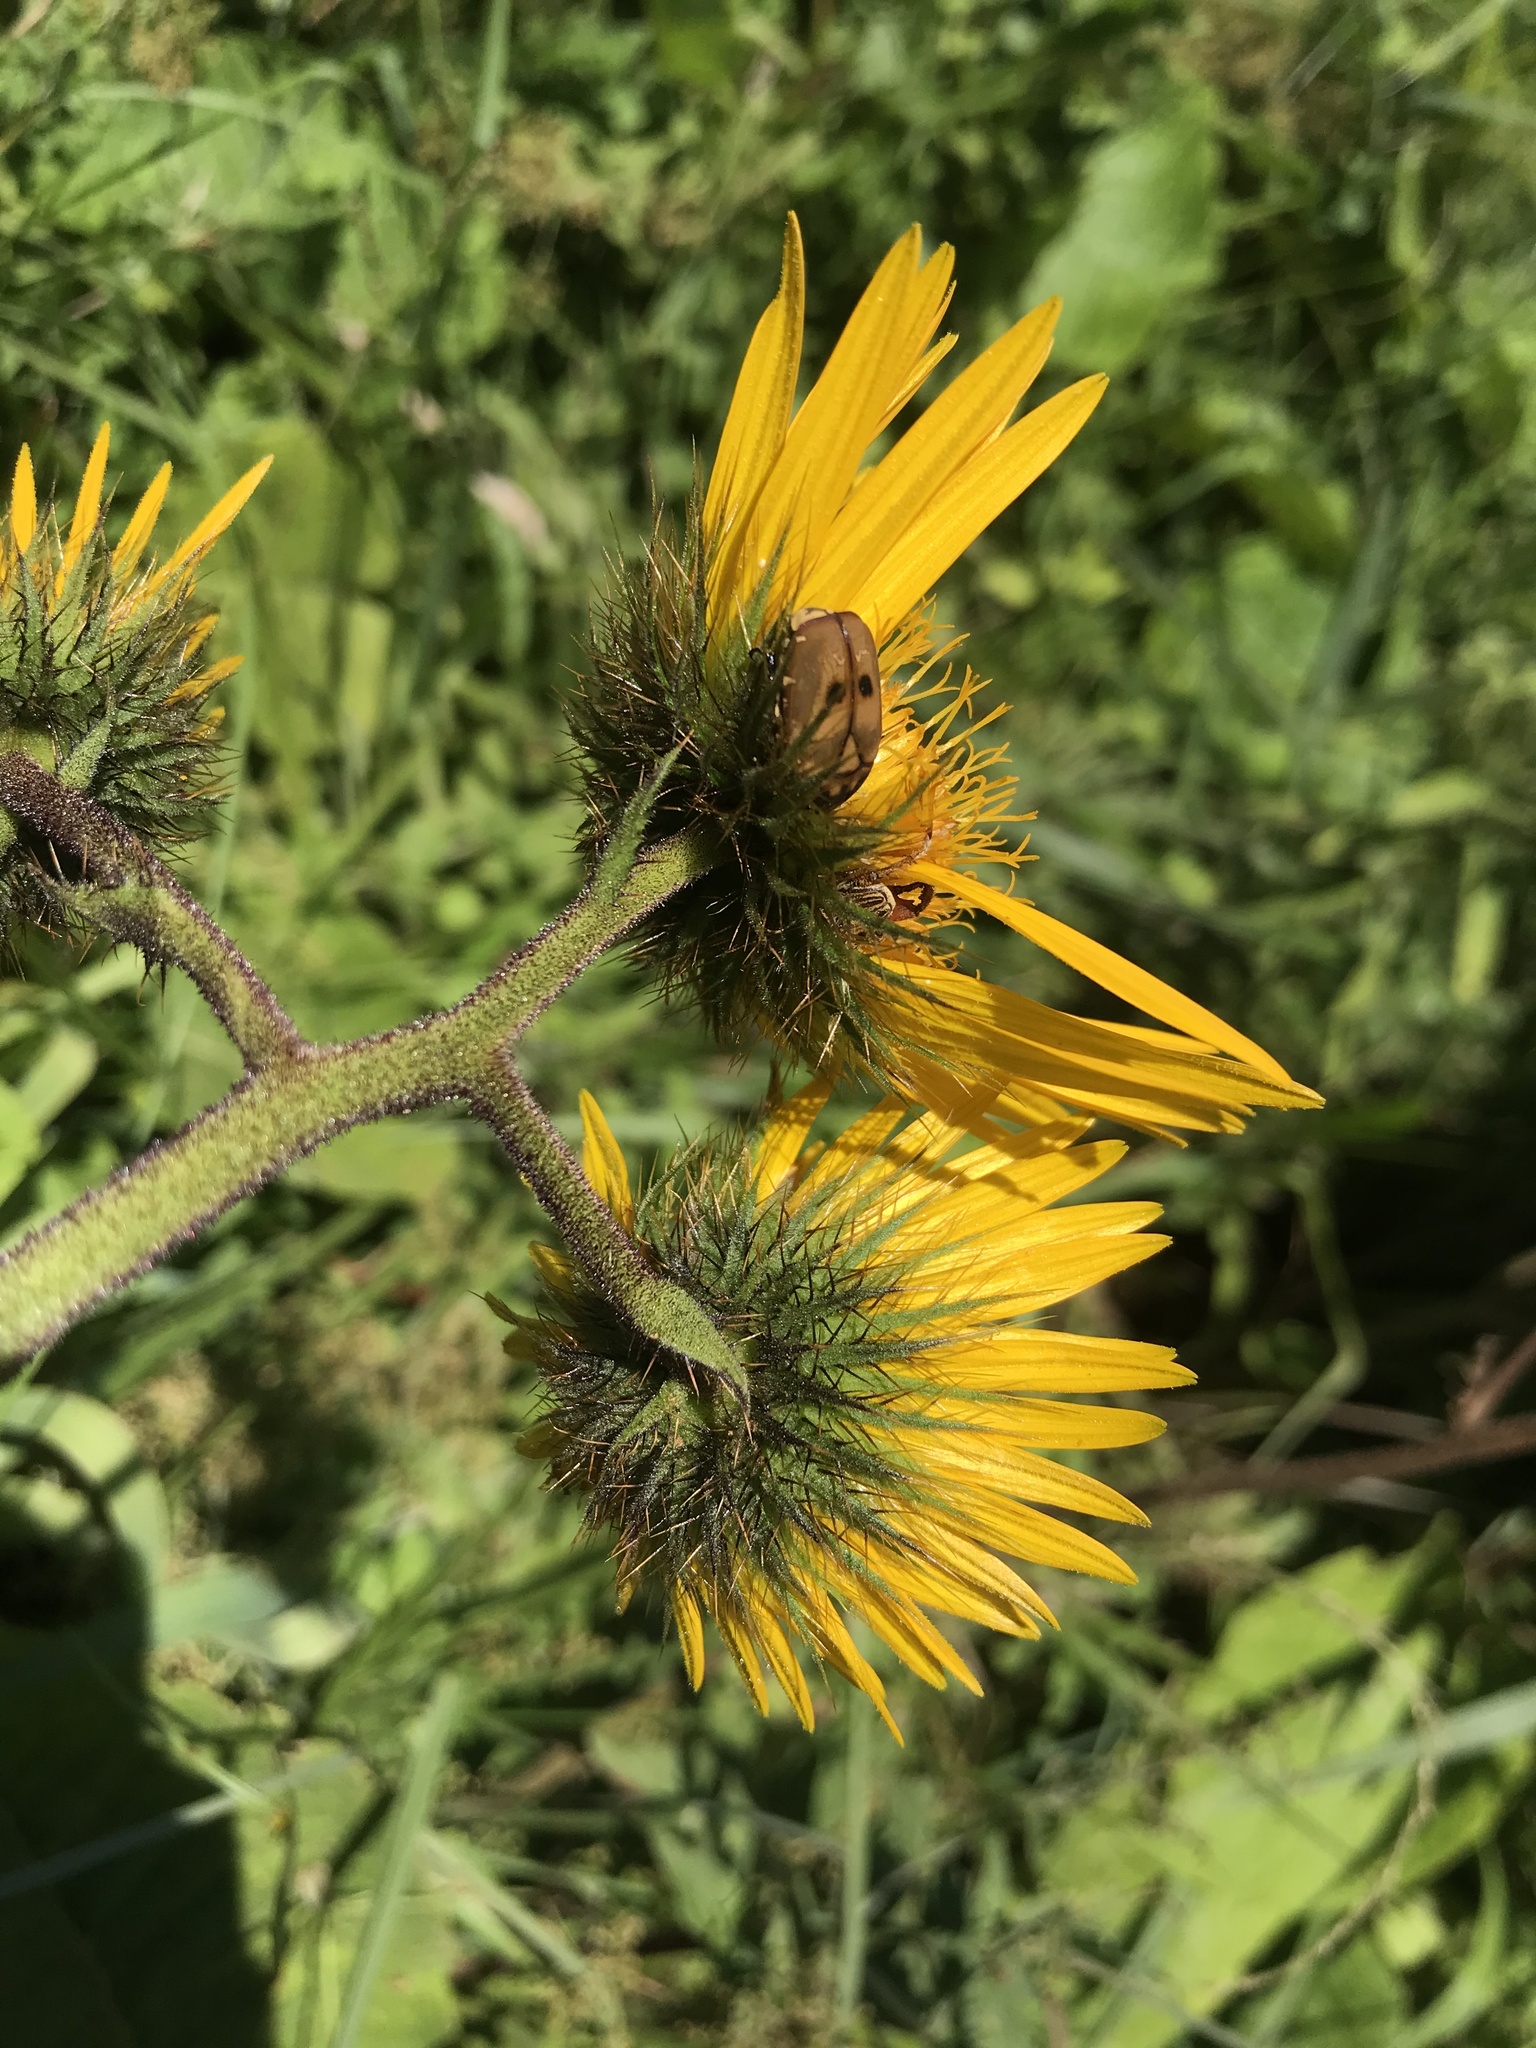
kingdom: Plantae
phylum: Tracheophyta
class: Magnoliopsida
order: Asterales
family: Asteraceae
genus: Berkheya
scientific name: Berkheya speciosa
